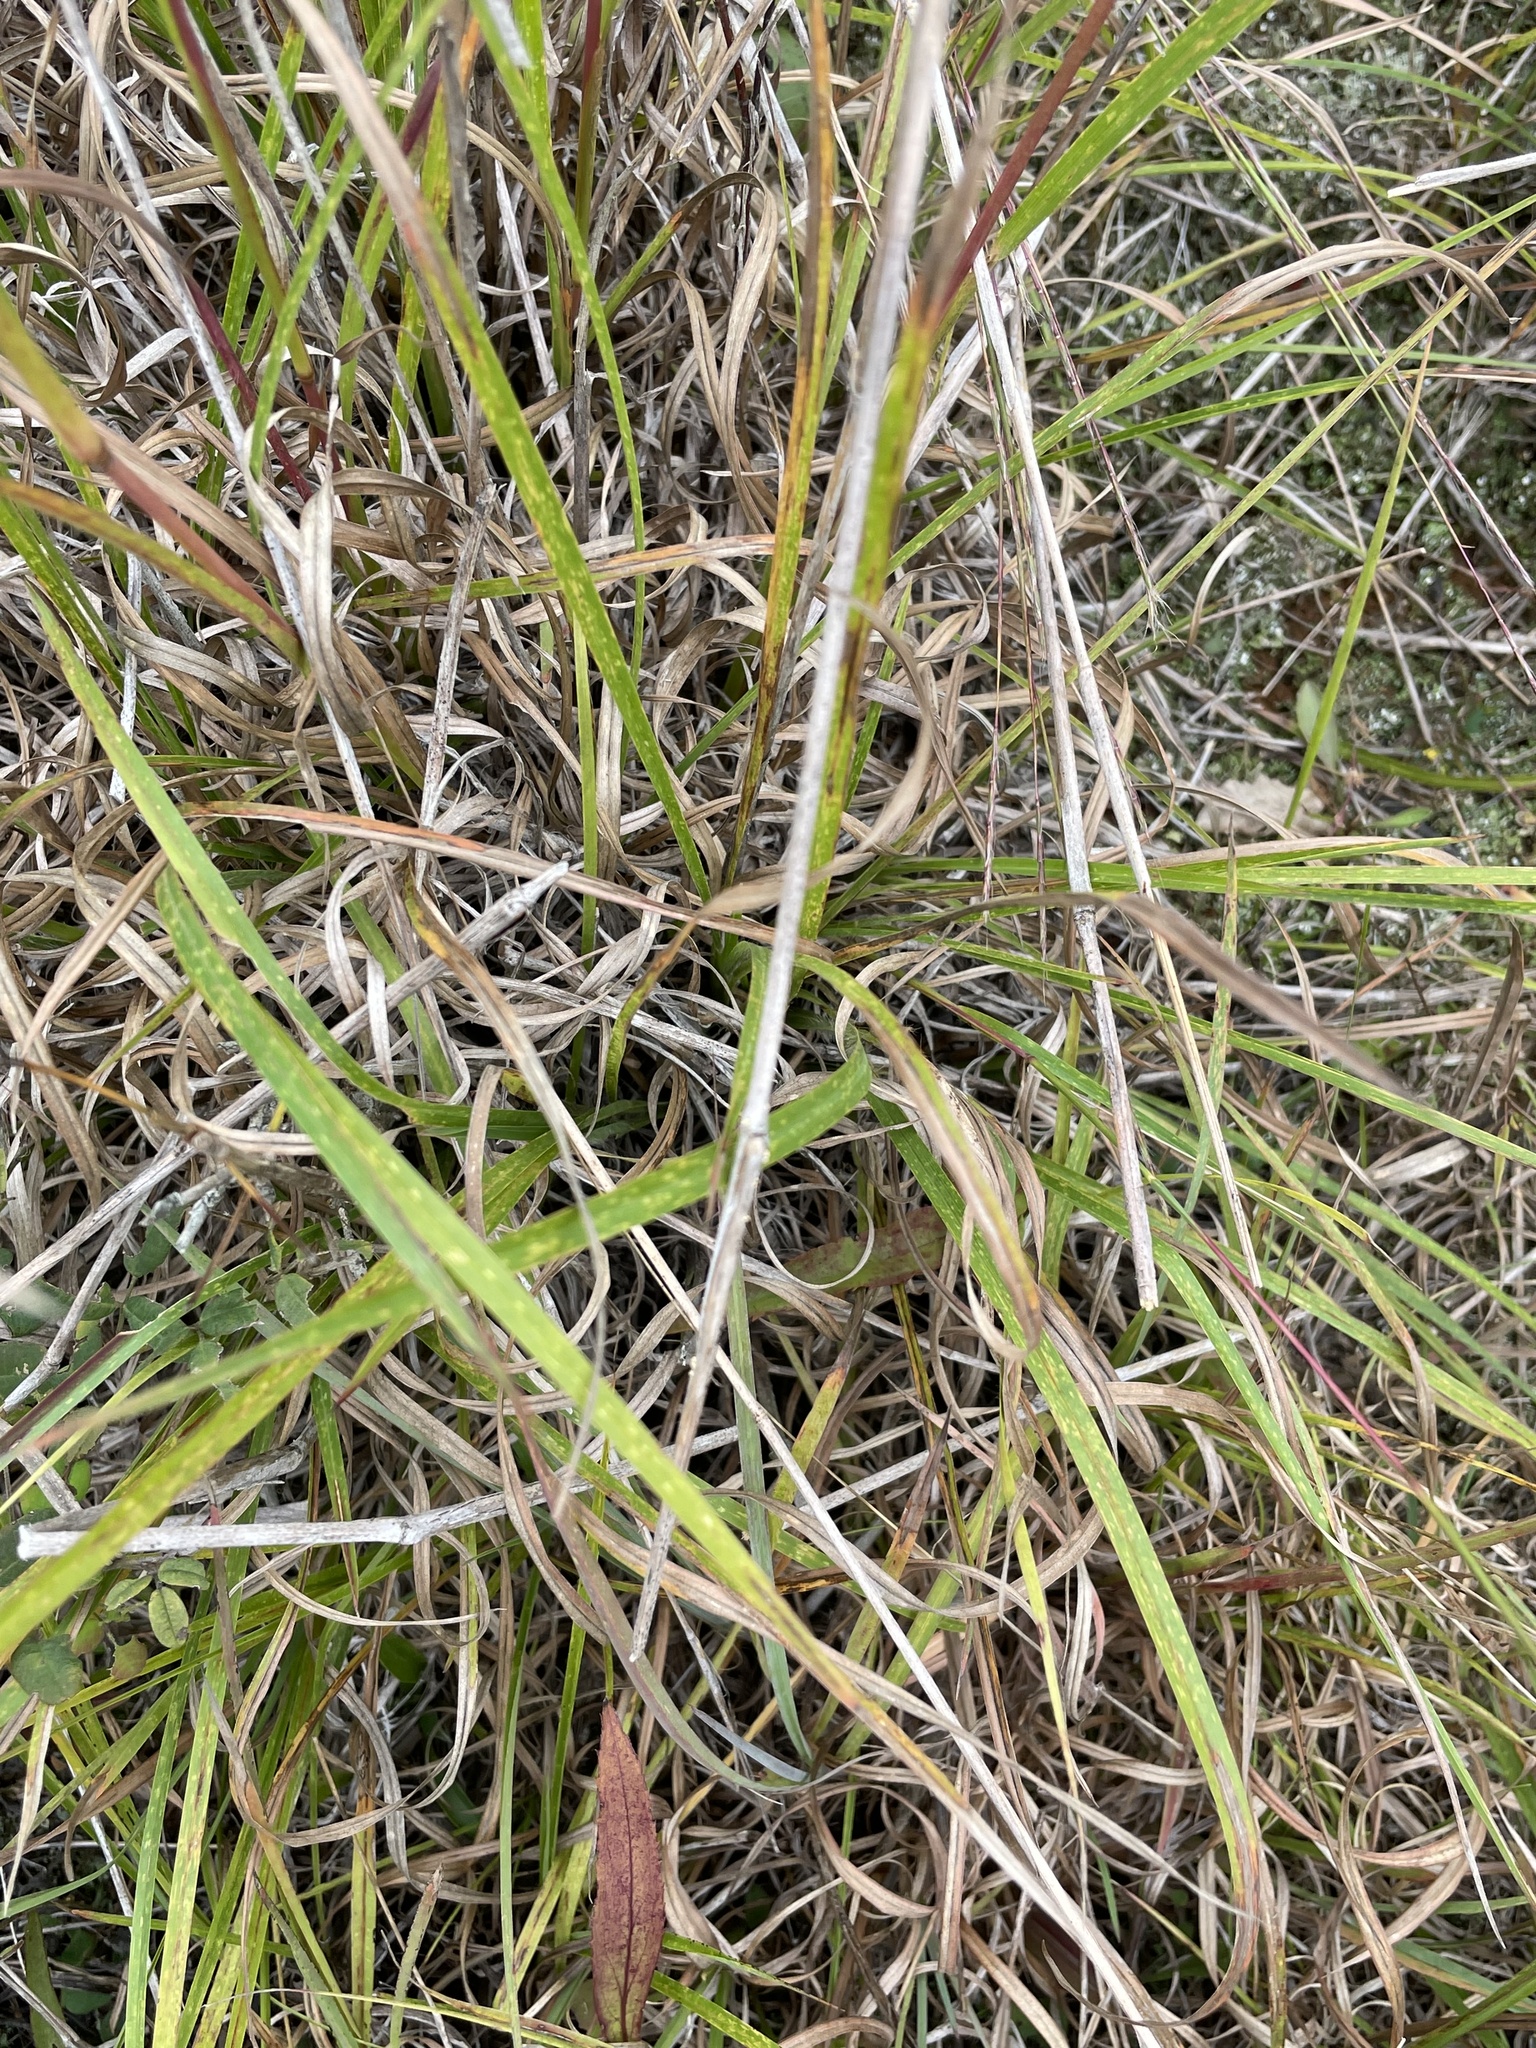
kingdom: Plantae
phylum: Tracheophyta
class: Liliopsida
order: Poales
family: Poaceae
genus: Schizachyrium
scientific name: Schizachyrium scoparium
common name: Little bluestem
